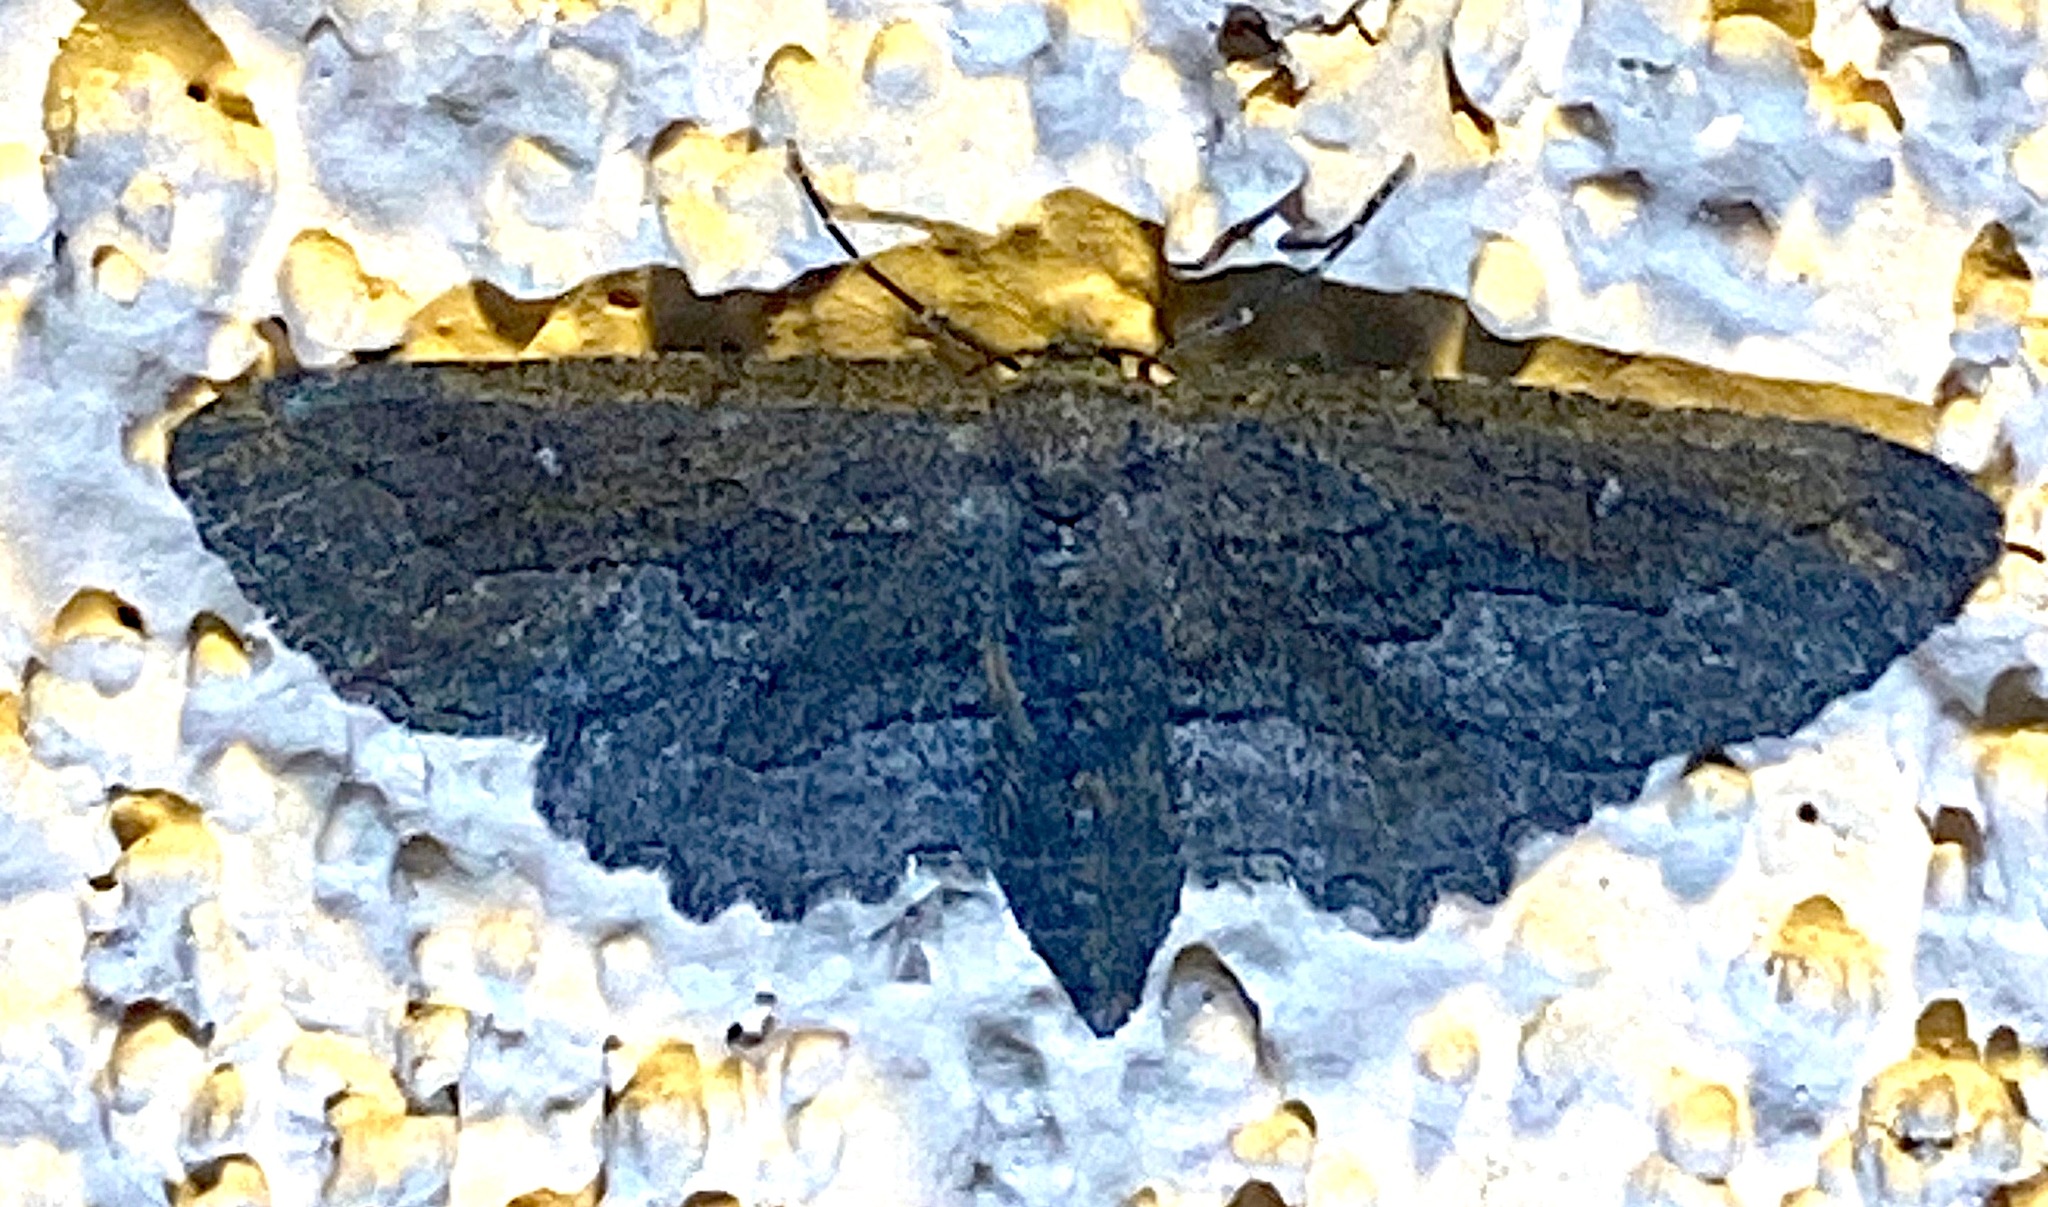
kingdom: Animalia
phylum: Arthropoda
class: Insecta
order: Lepidoptera
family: Geometridae
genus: Aethaloida
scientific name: Aethaloida packardaria
